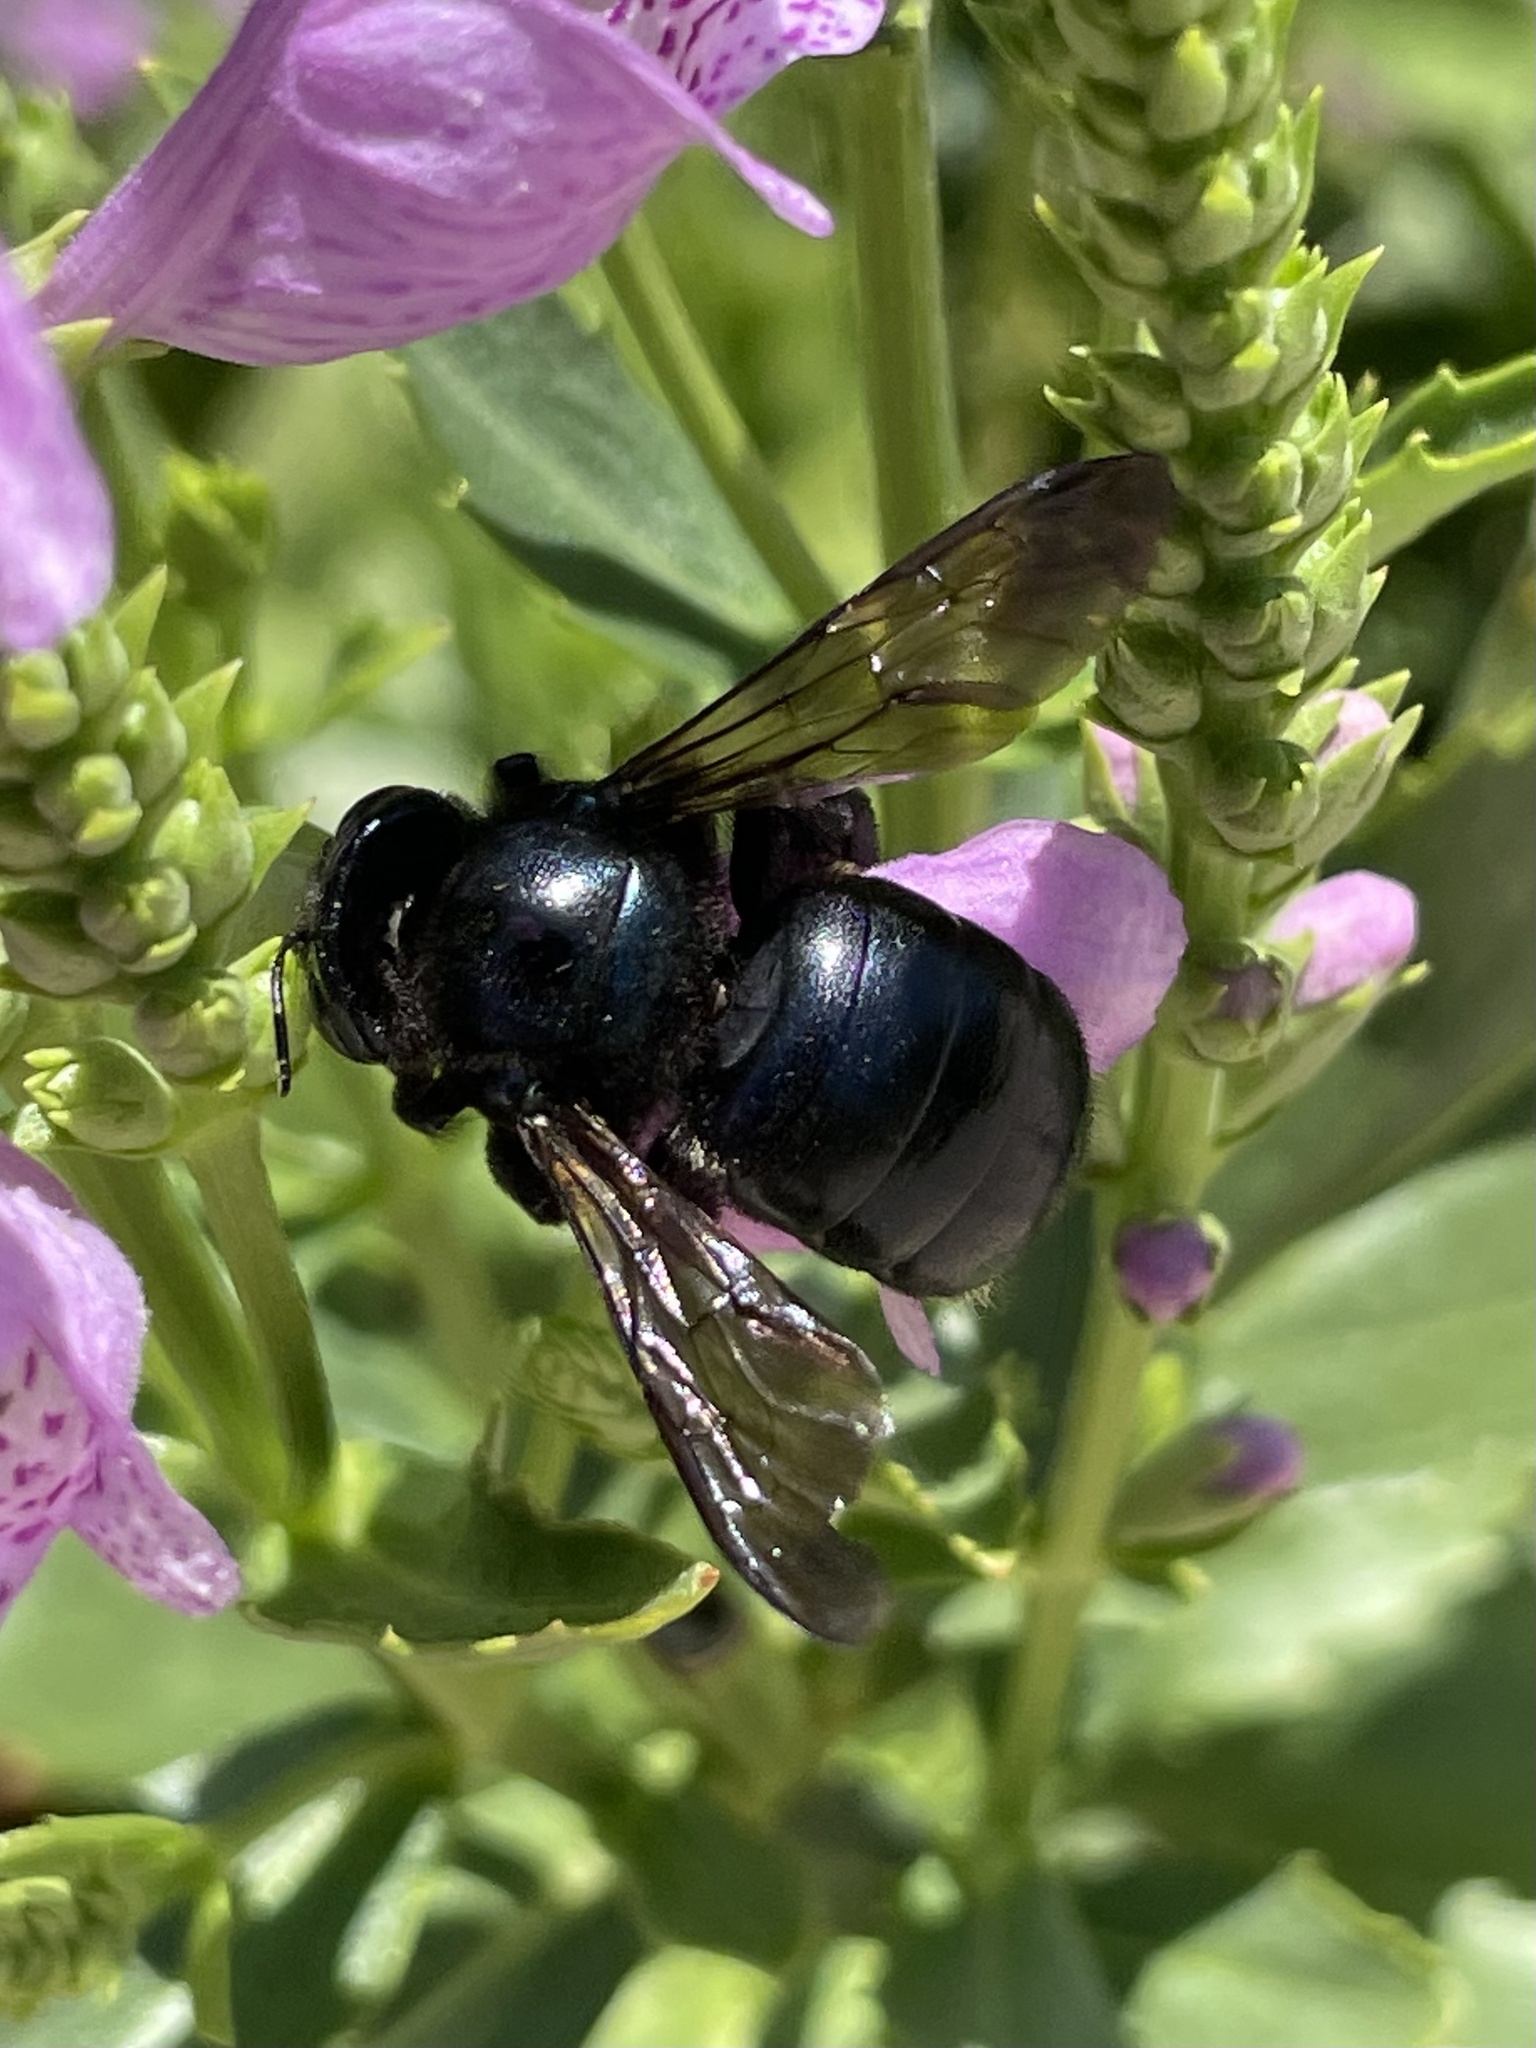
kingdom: Animalia
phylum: Arthropoda
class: Insecta
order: Hymenoptera
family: Apidae
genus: Xylocopa
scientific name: Xylocopa micans
